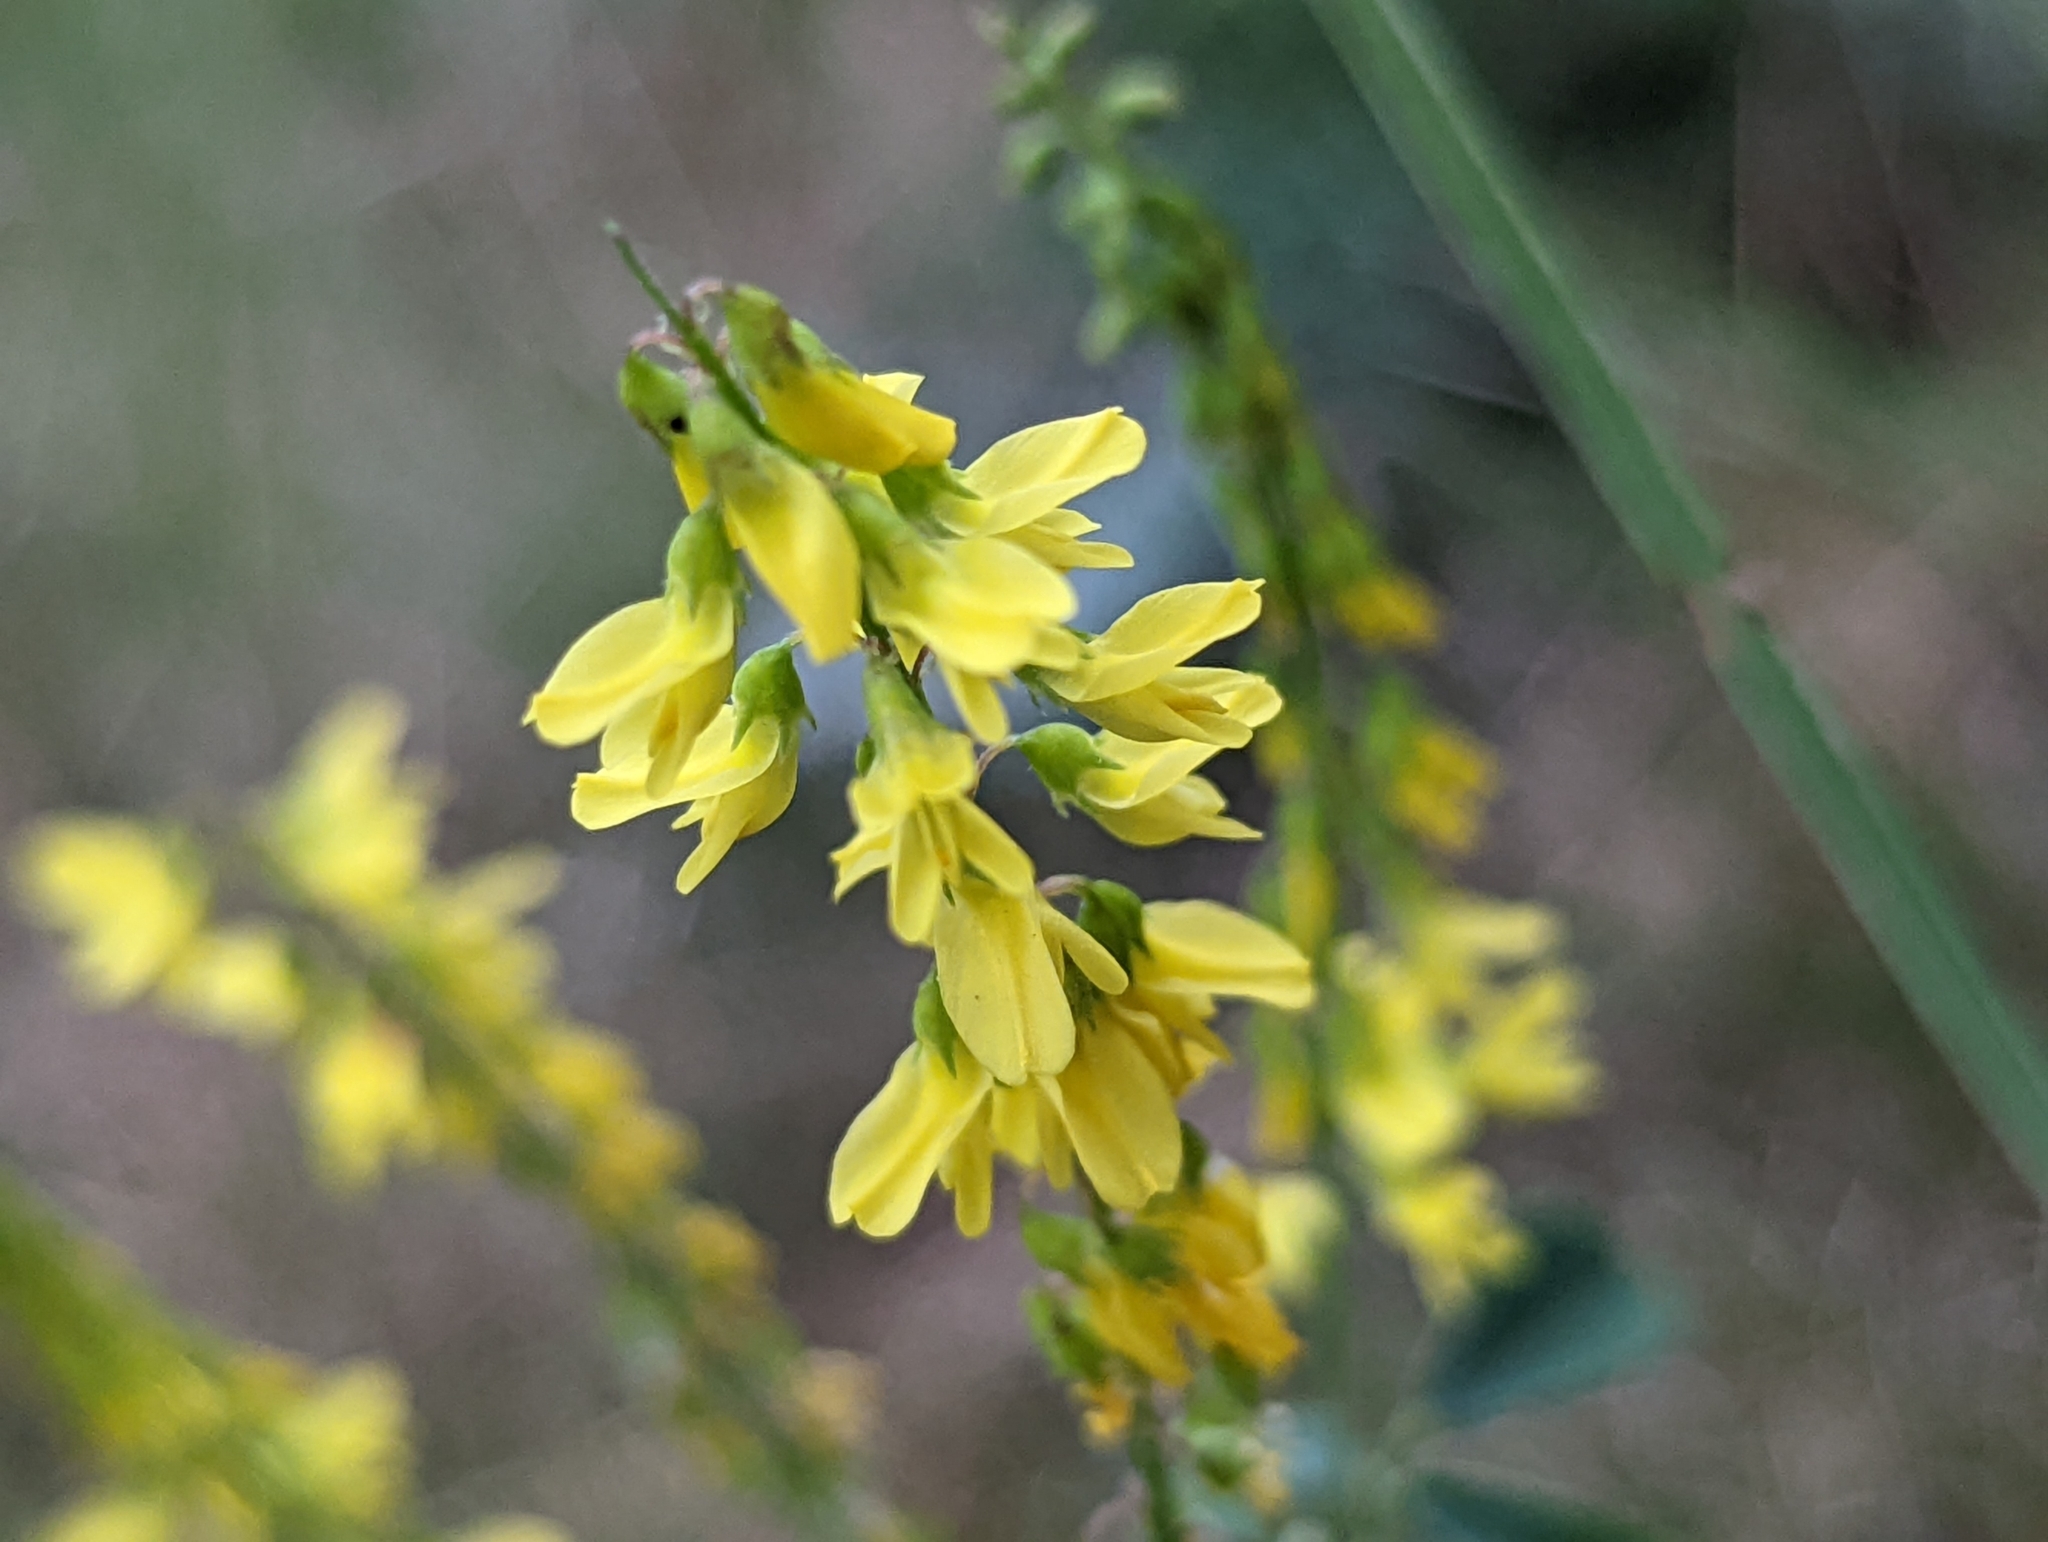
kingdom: Plantae
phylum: Tracheophyta
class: Magnoliopsida
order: Fabales
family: Fabaceae
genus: Melilotus
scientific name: Melilotus officinalis
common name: Sweetclover
